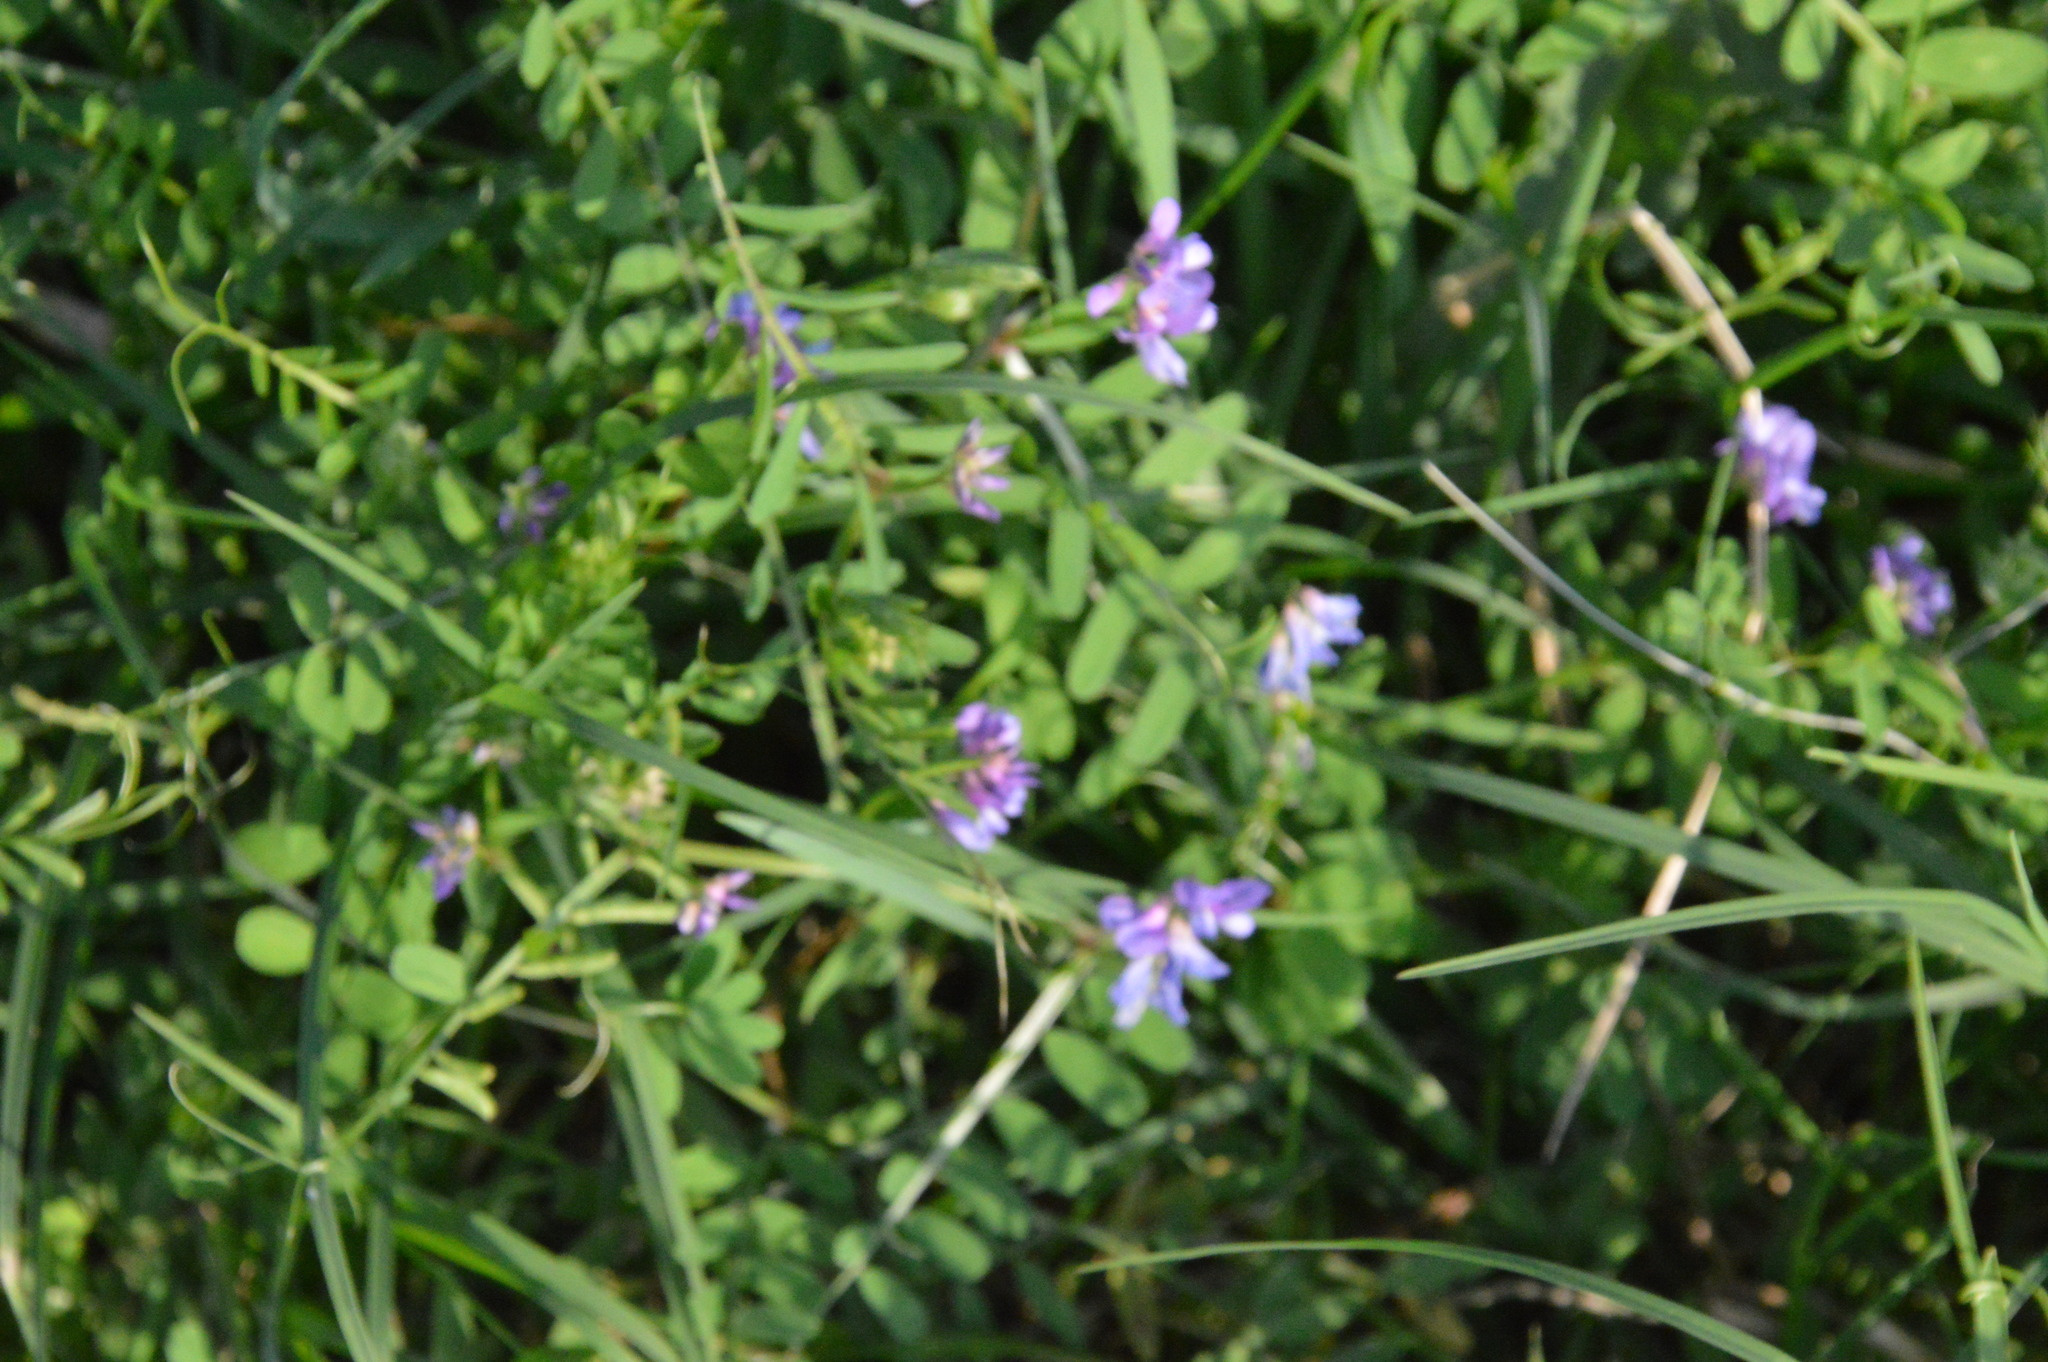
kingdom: Plantae
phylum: Tracheophyta
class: Magnoliopsida
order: Fabales
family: Fabaceae
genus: Vicia
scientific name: Vicia ludoviciana
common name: Louisiana vetch
